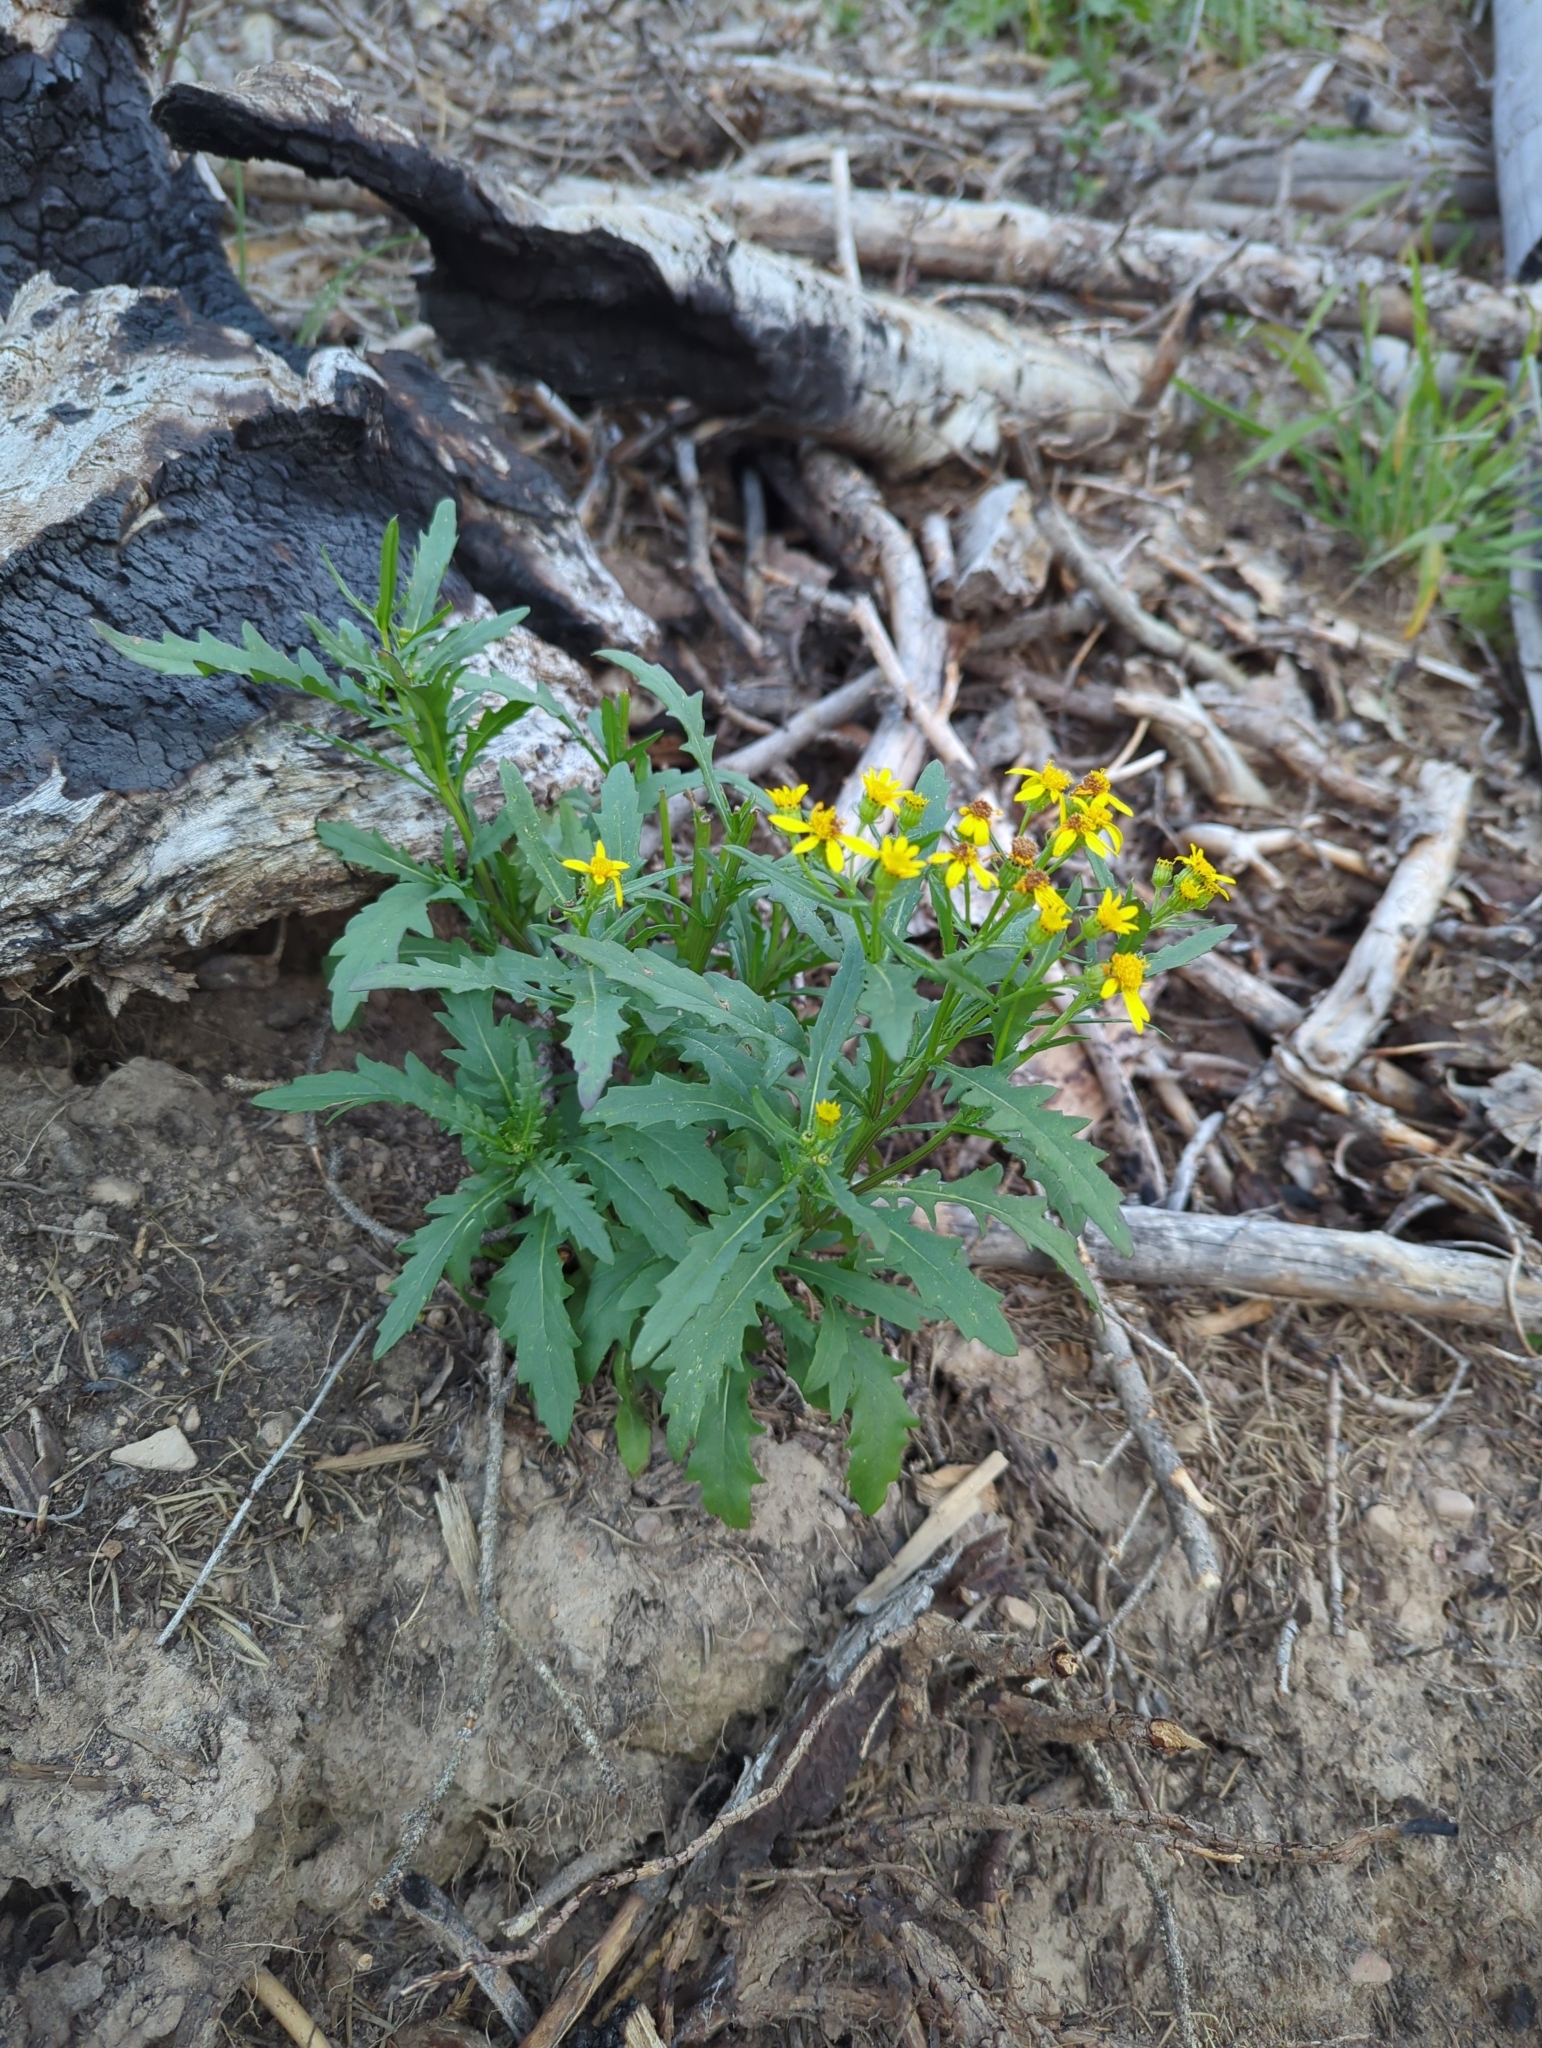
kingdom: Plantae
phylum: Tracheophyta
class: Magnoliopsida
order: Asterales
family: Asteraceae
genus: Senecio
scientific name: Senecio eremophilus
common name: Desert ragwort
